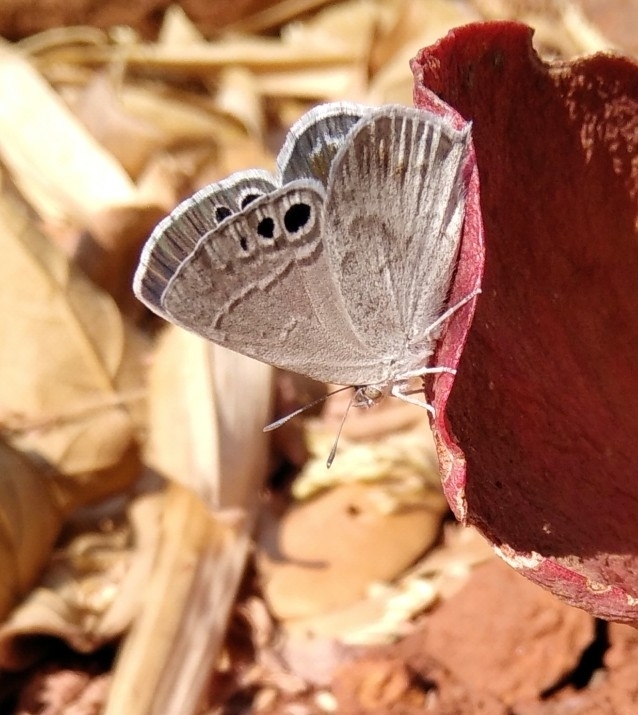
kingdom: Animalia
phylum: Arthropoda
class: Insecta
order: Lepidoptera
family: Lycaenidae
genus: Leptomyrina
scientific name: Leptomyrina gorgias
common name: Common black-eye
